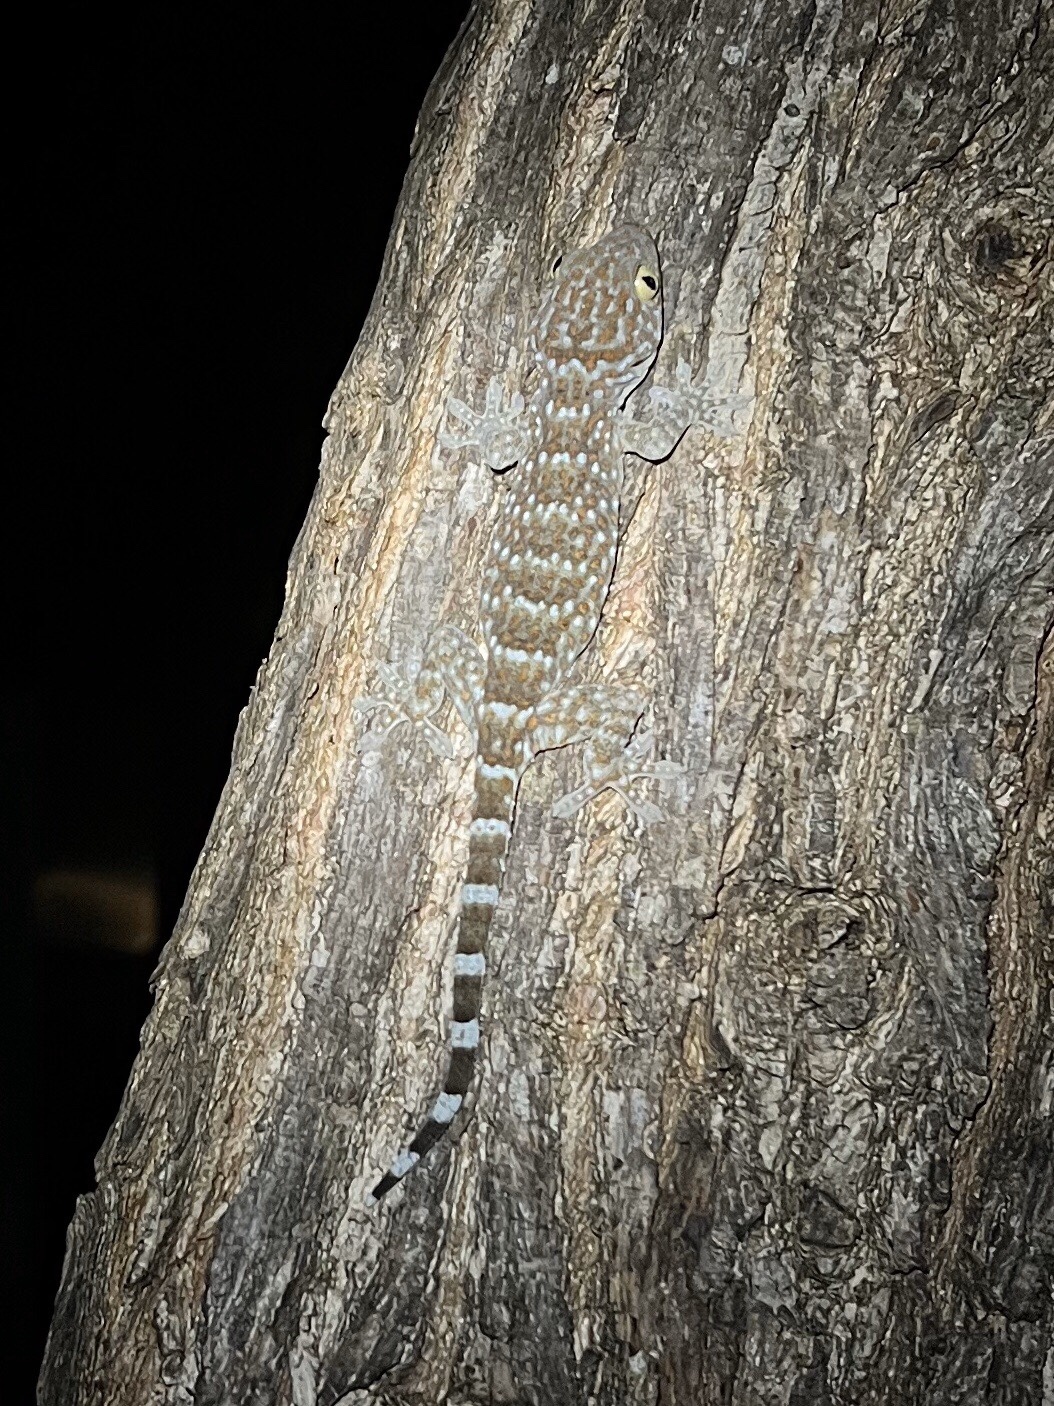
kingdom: Animalia
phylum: Chordata
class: Squamata
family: Gekkonidae
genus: Gekko
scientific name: Gekko gecko
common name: Tokay gecko
